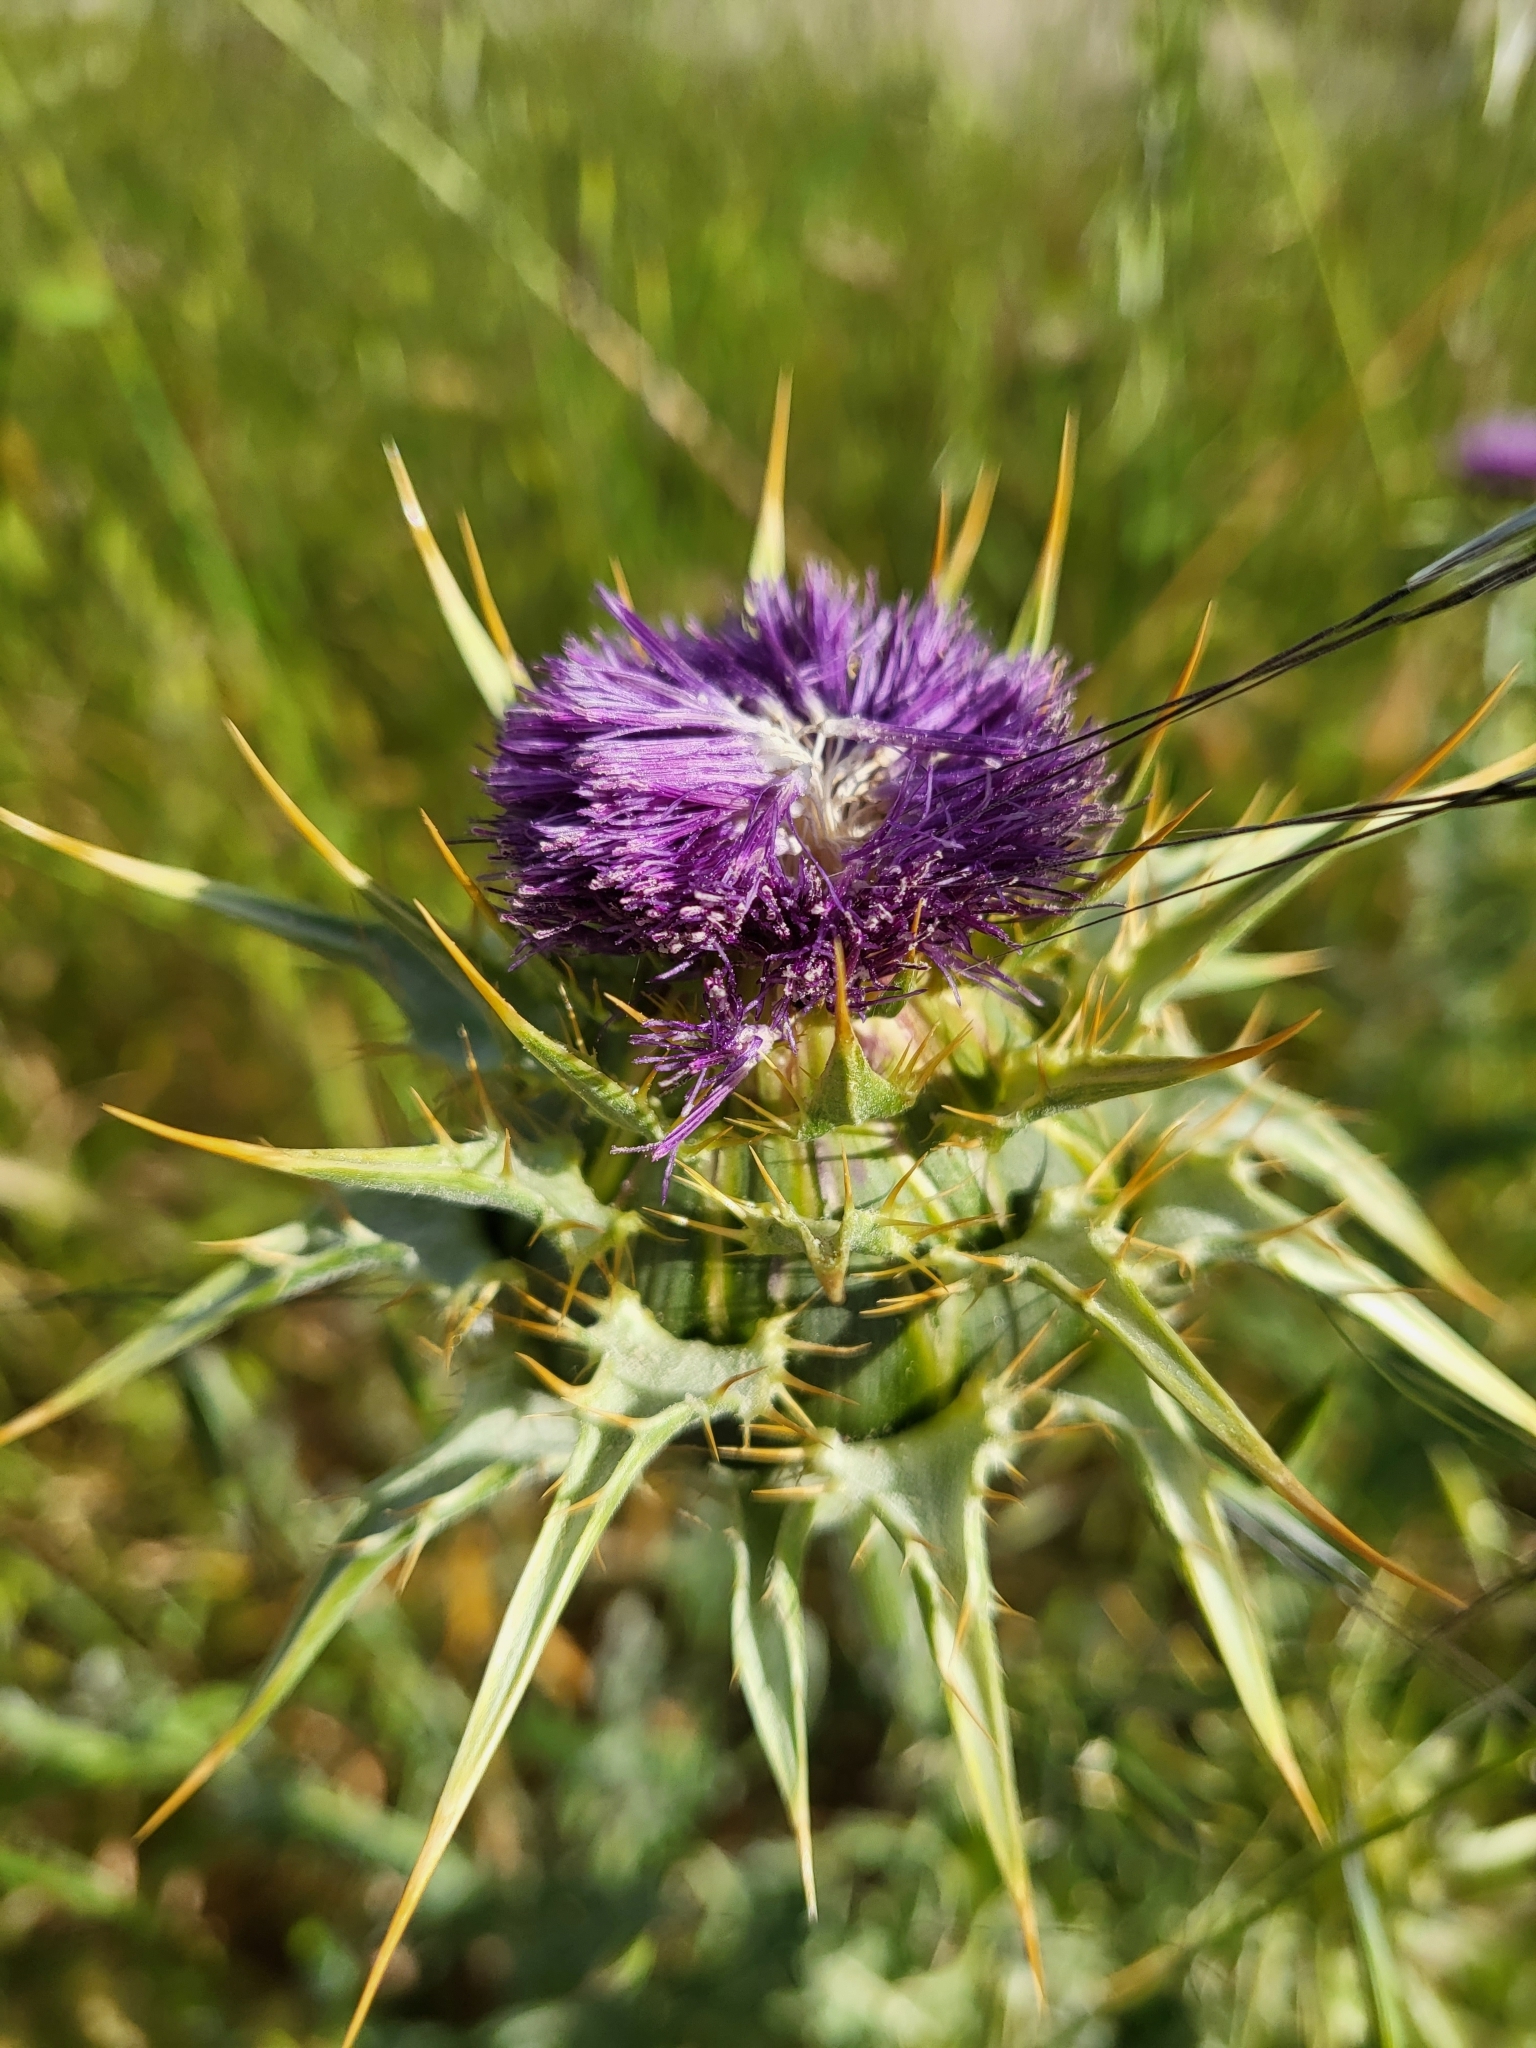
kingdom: Plantae
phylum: Tracheophyta
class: Magnoliopsida
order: Asterales
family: Asteraceae
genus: Silybum
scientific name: Silybum marianum
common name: Milk thistle
